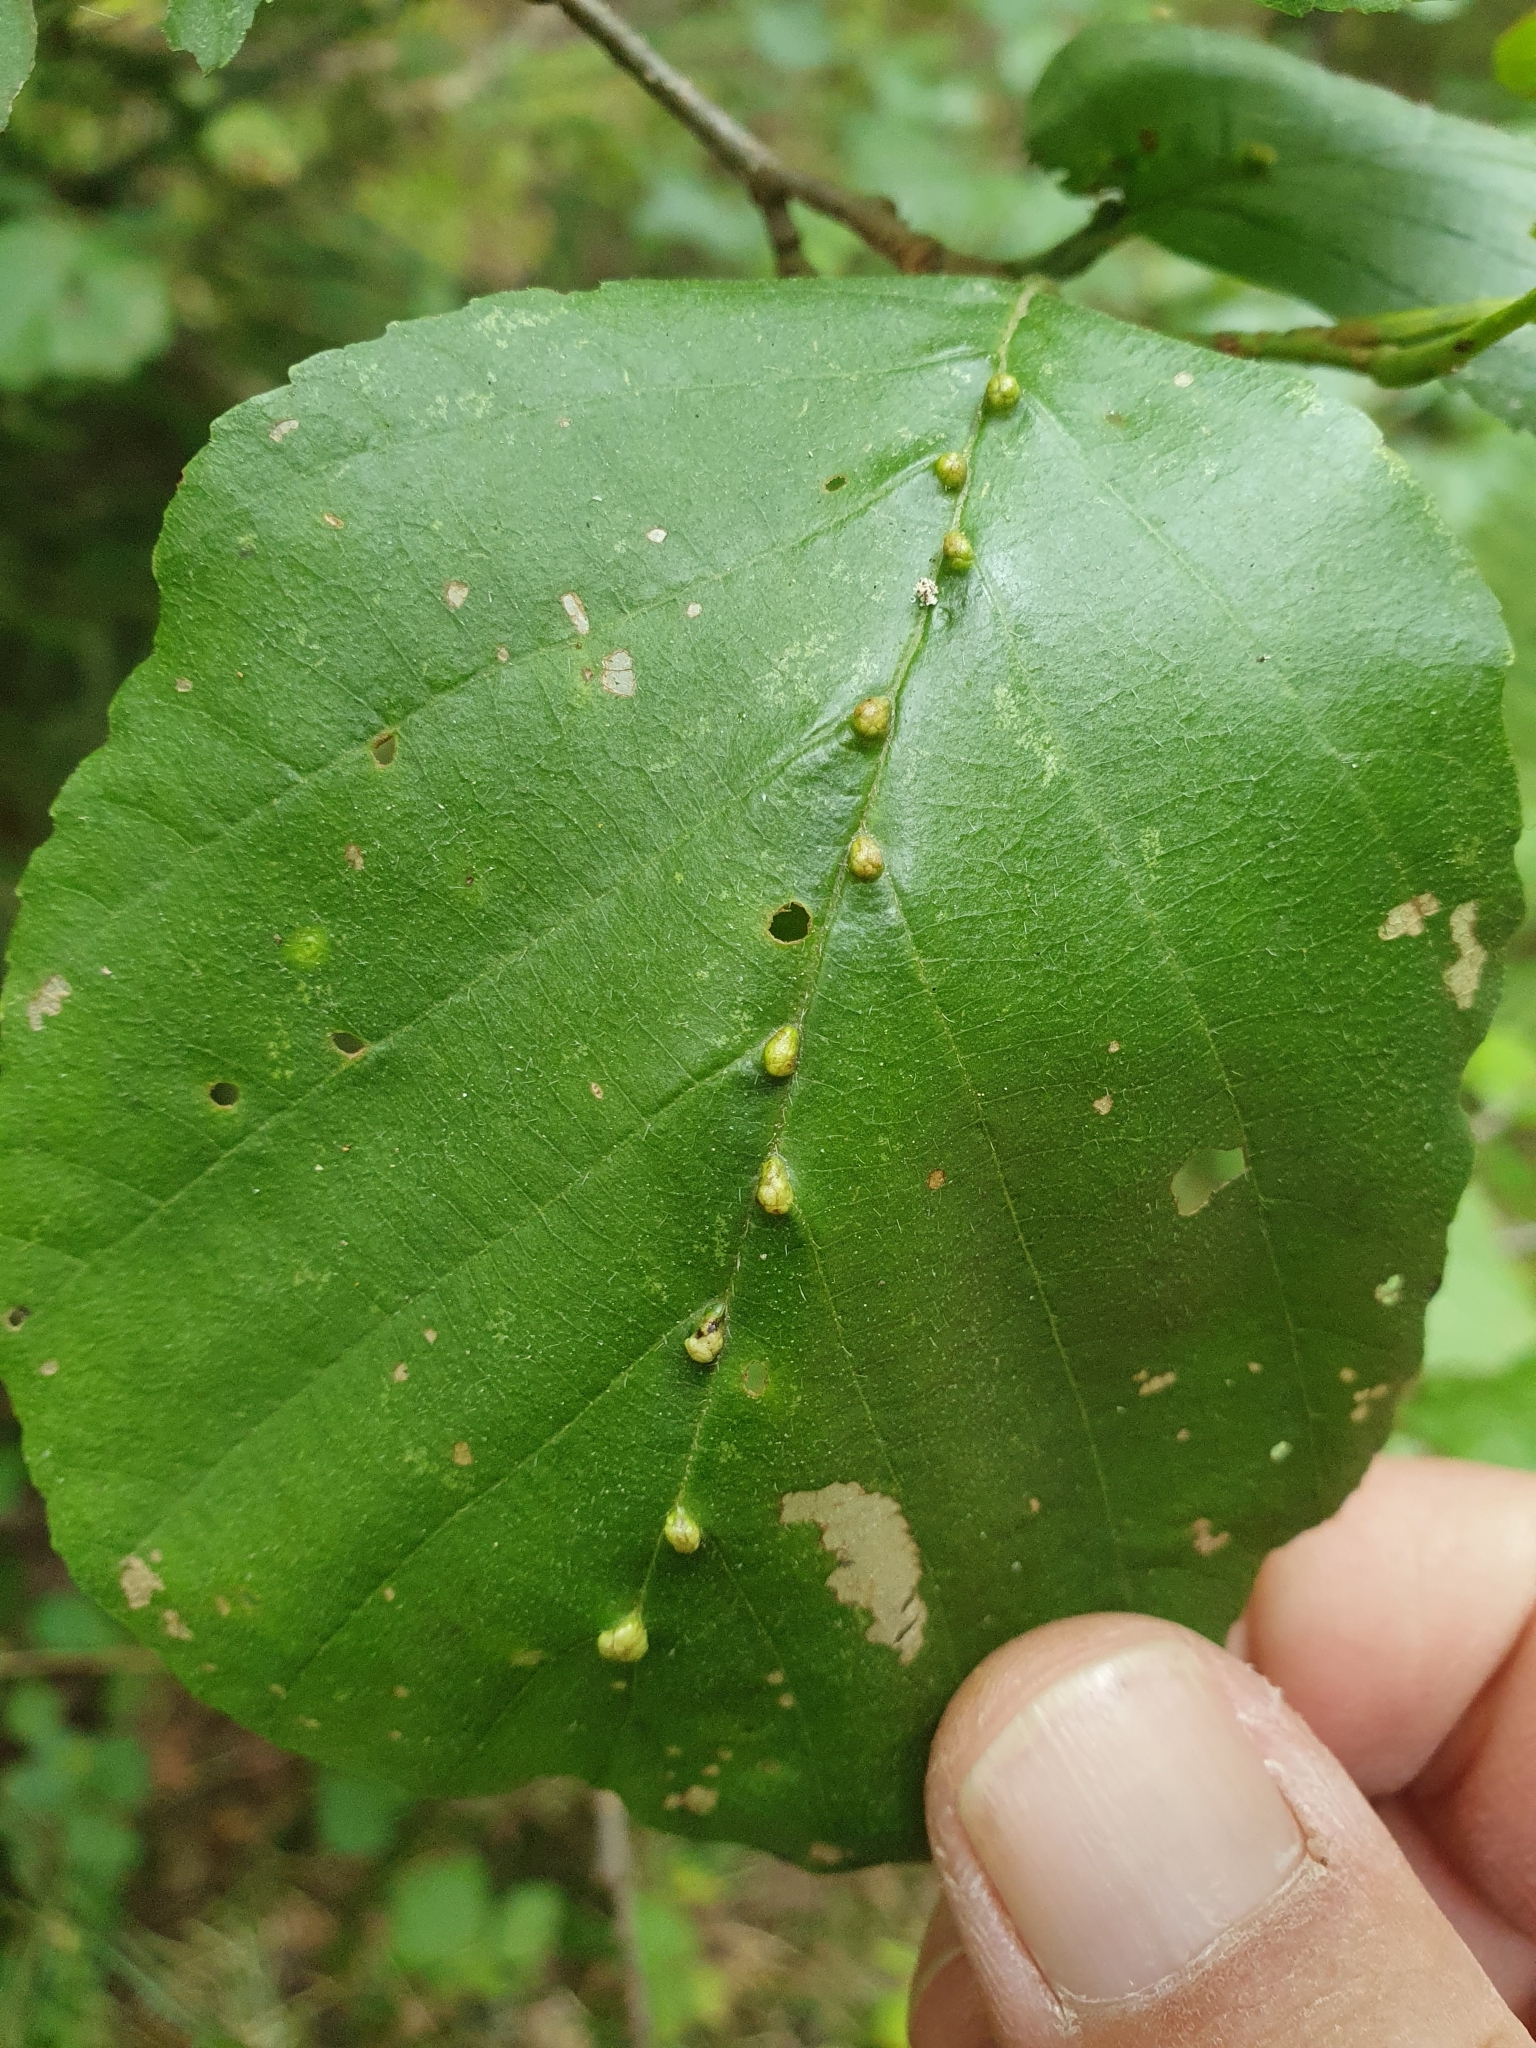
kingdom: Animalia
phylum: Arthropoda
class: Arachnida
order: Trombidiformes
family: Eriophyidae
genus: Eriophyes
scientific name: Eriophyes inangulis
